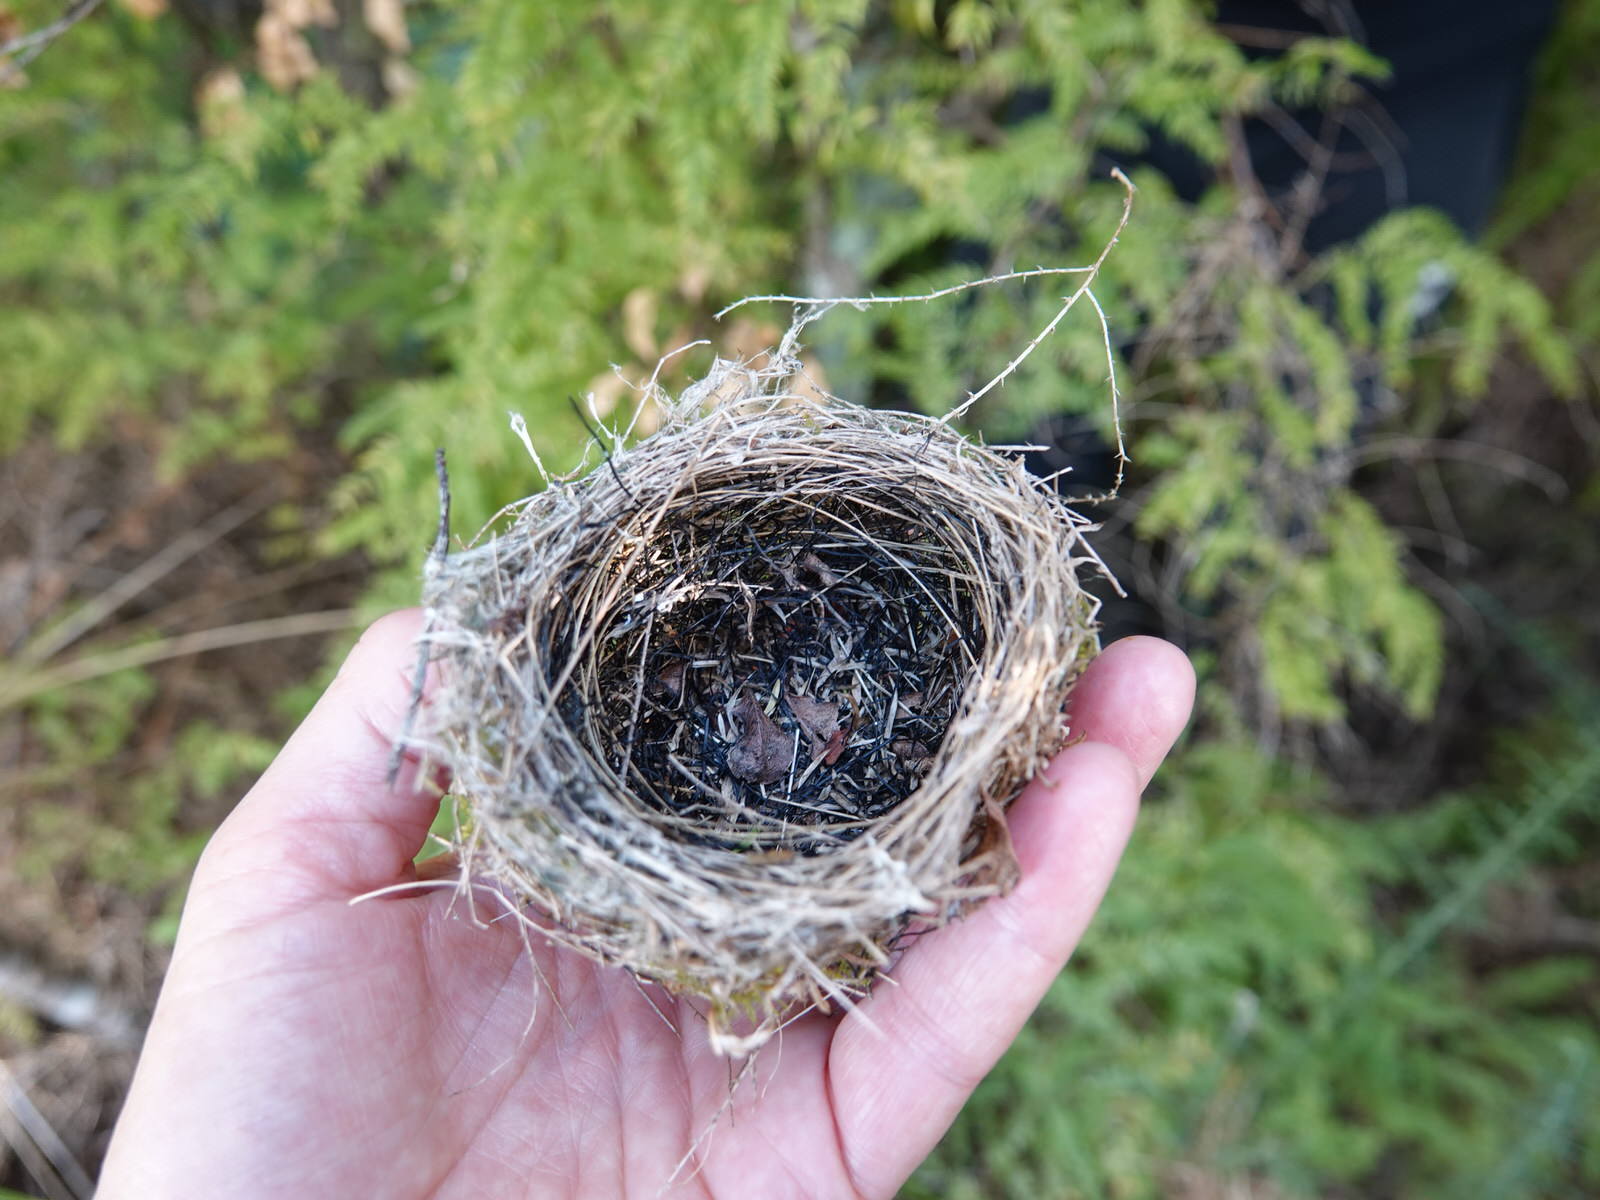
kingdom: Animalia
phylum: Chordata
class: Aves
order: Passeriformes
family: Zosteropidae
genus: Zosterops
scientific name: Zosterops lateralis
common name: Silvereye
